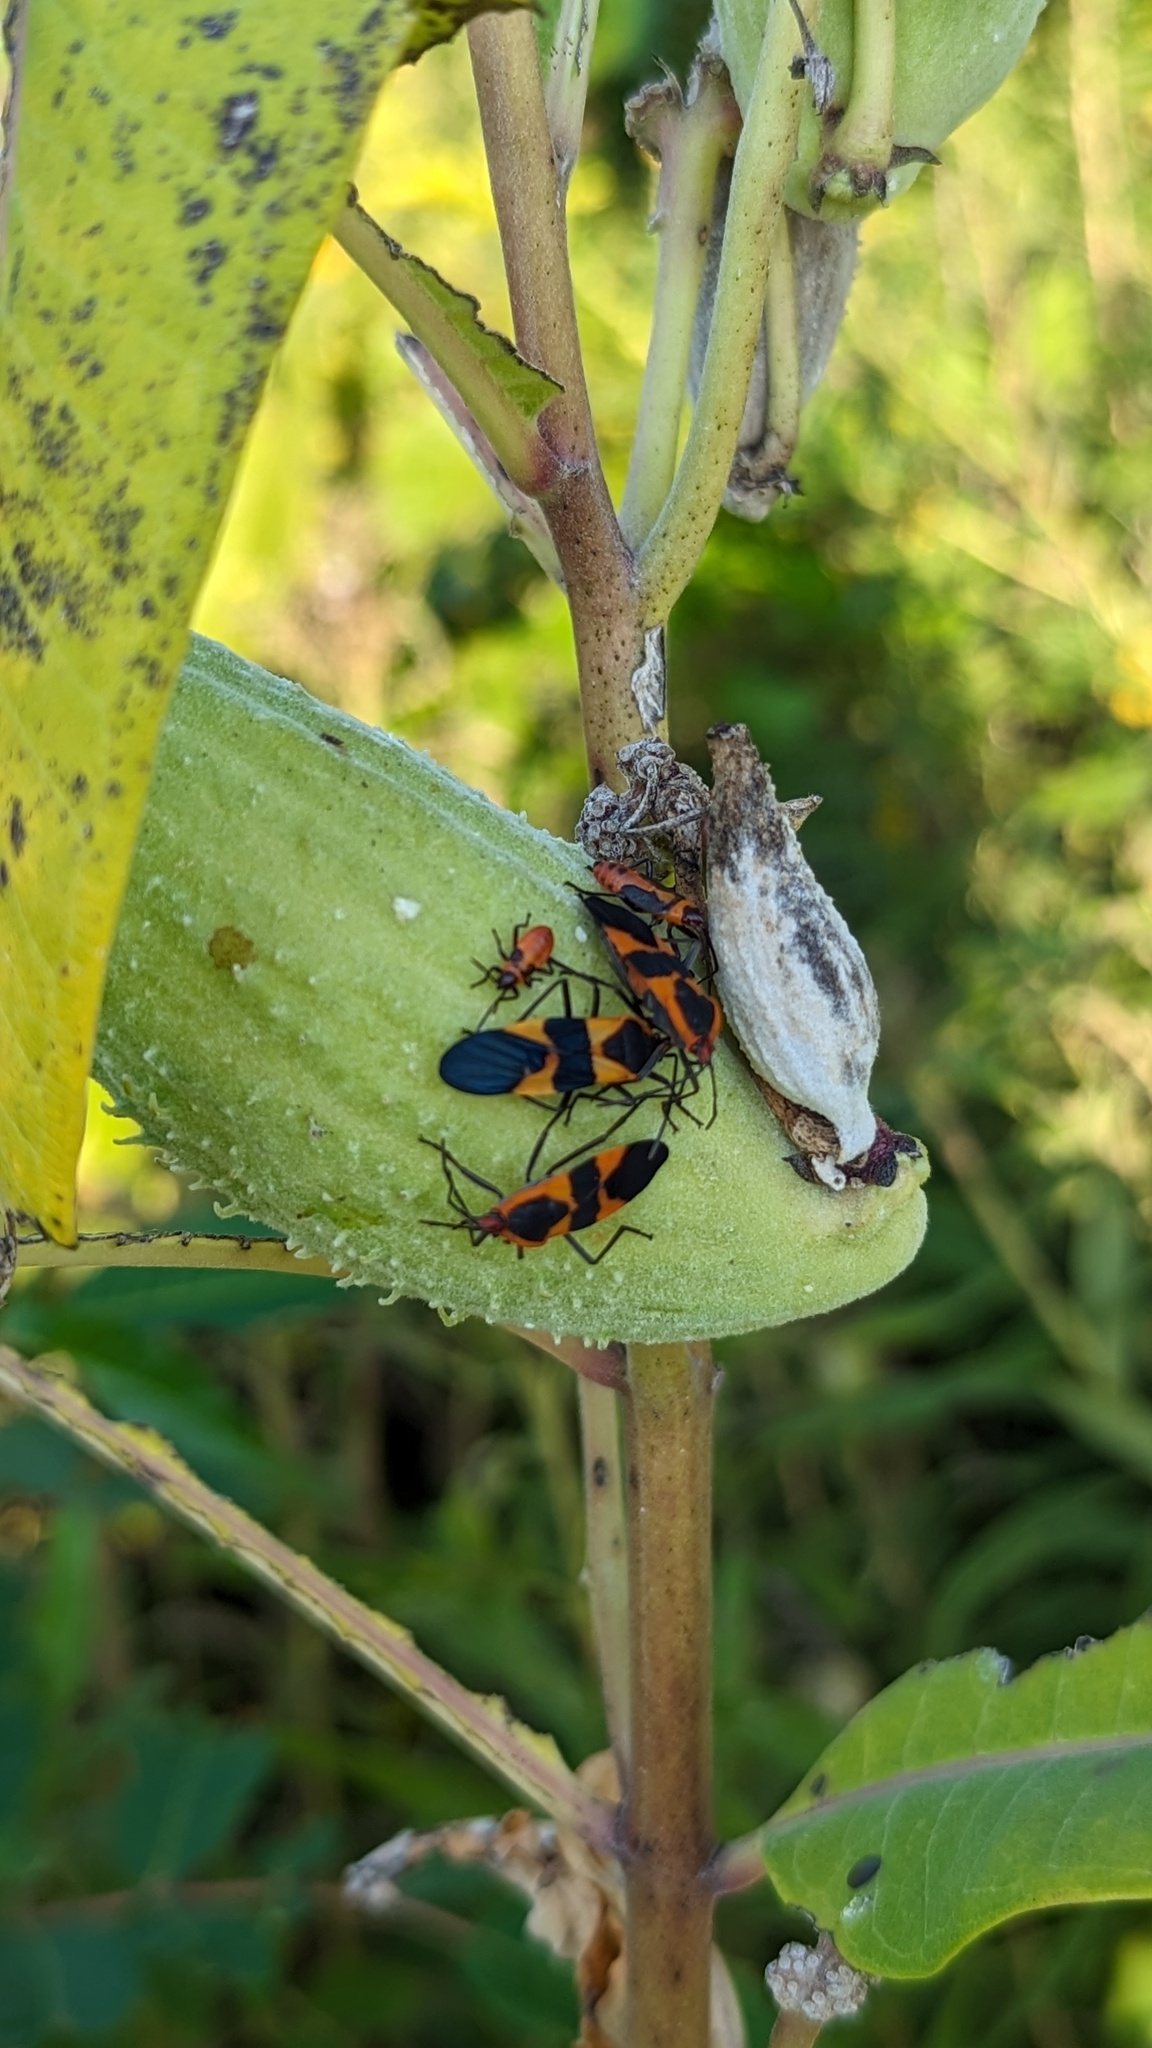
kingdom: Animalia
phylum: Arthropoda
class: Insecta
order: Hemiptera
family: Lygaeidae
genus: Oncopeltus
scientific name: Oncopeltus fasciatus
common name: Large milkweed bug
